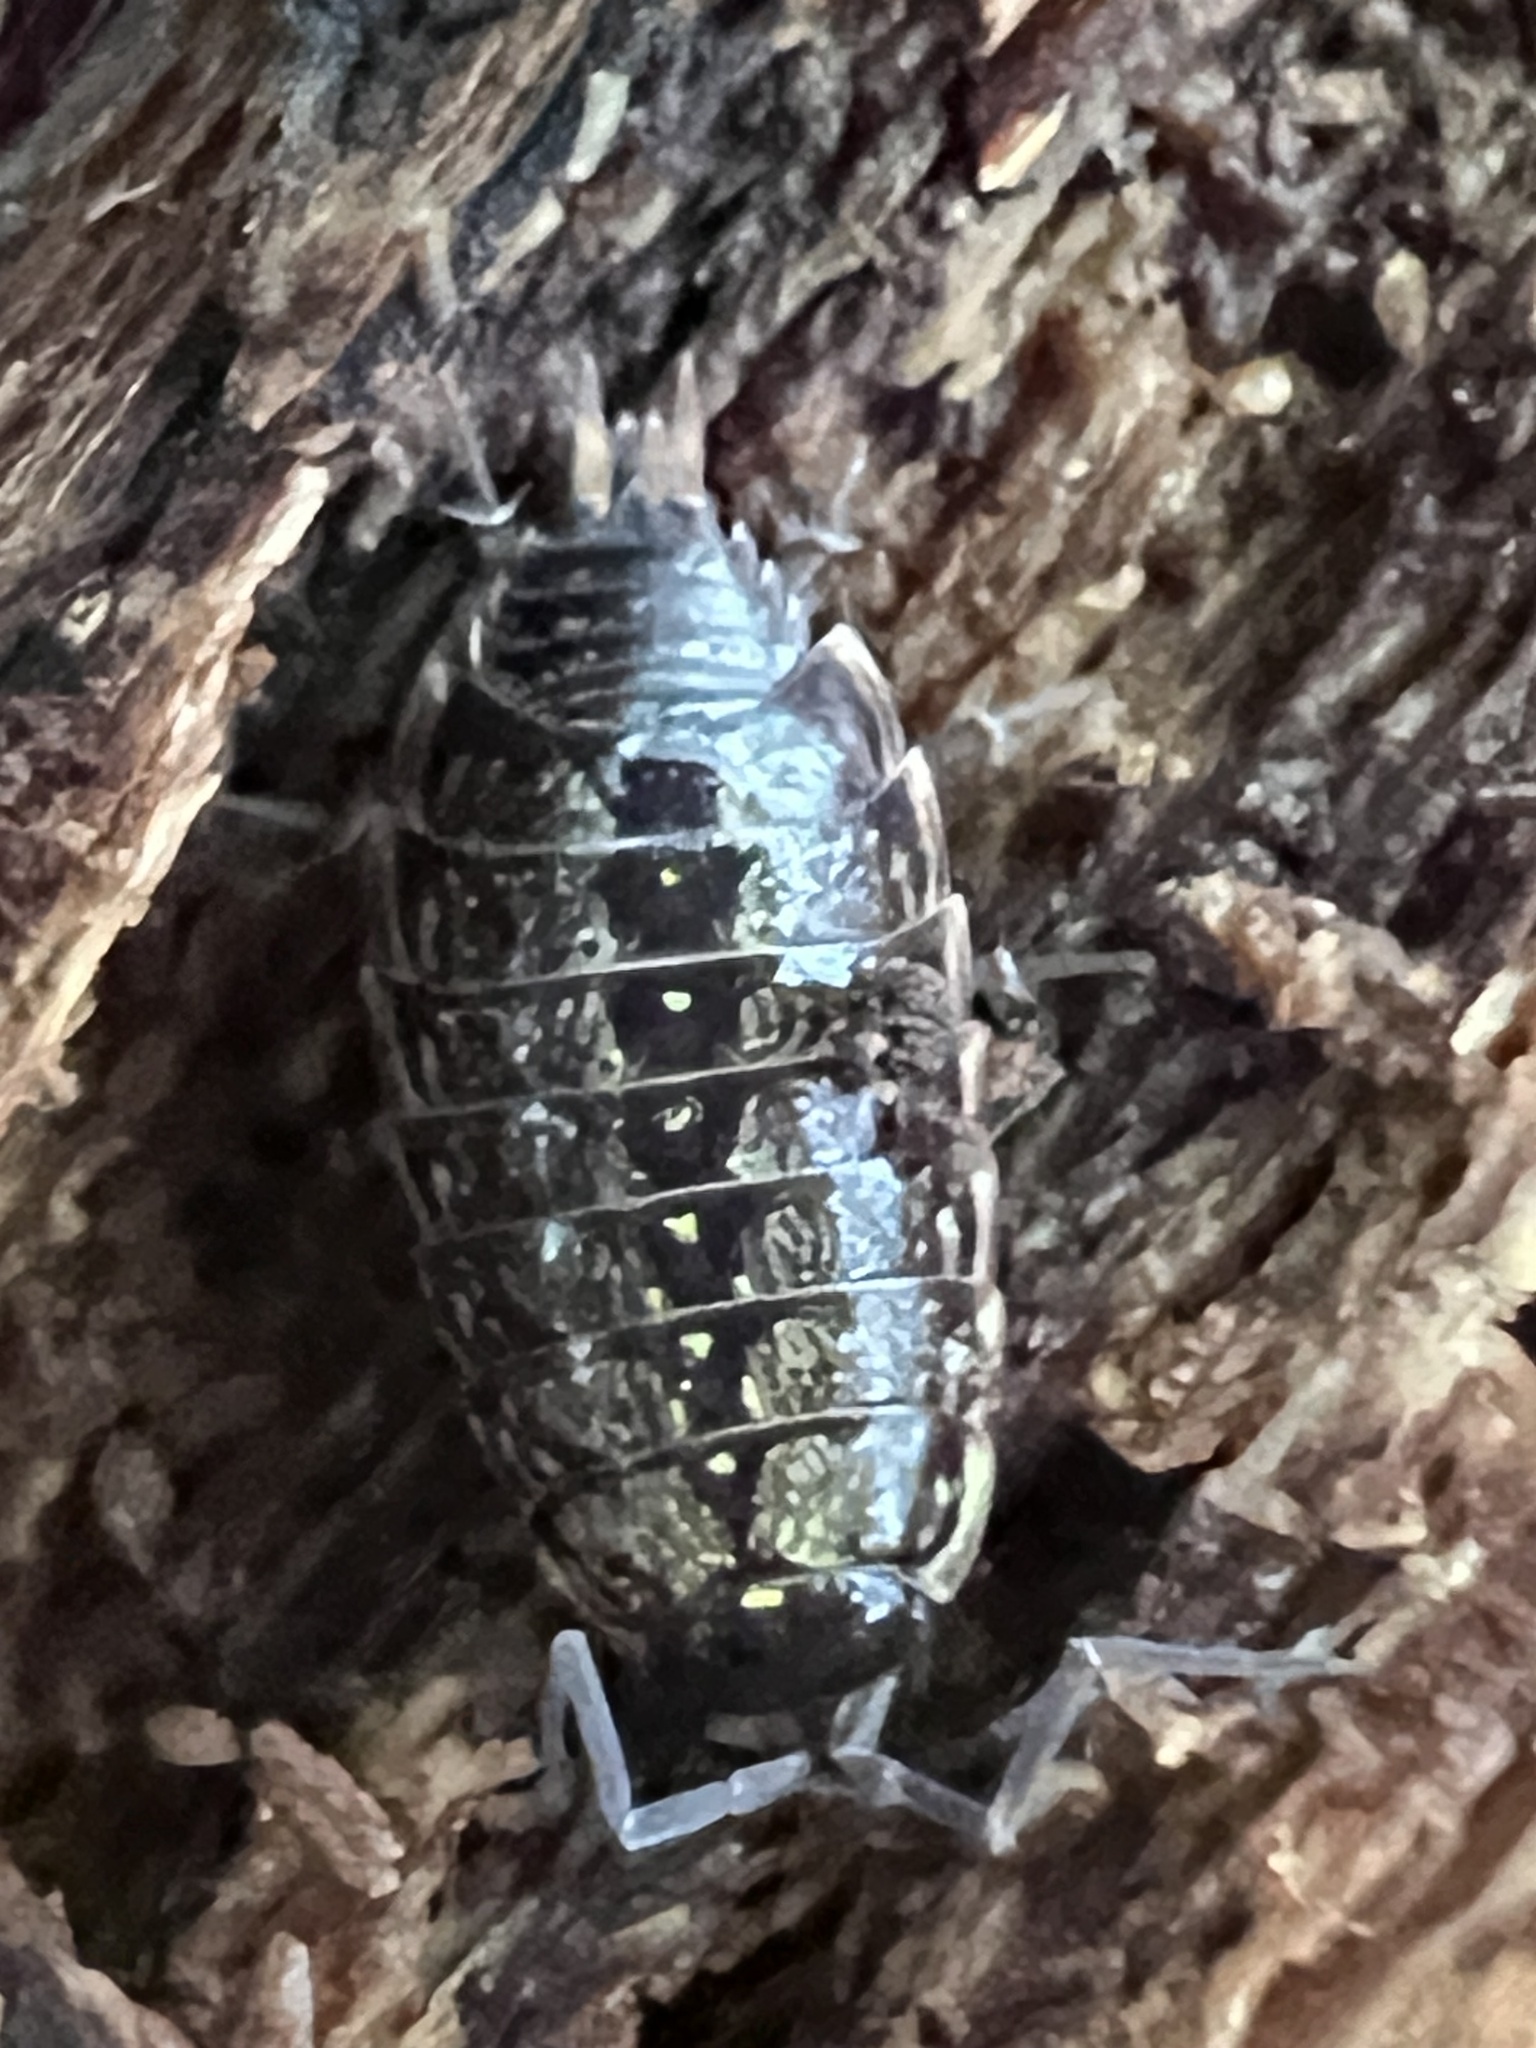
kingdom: Animalia
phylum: Arthropoda
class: Malacostraca
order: Isopoda
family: Philosciidae
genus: Philoscia
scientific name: Philoscia muscorum
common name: Common striped woodlouse
